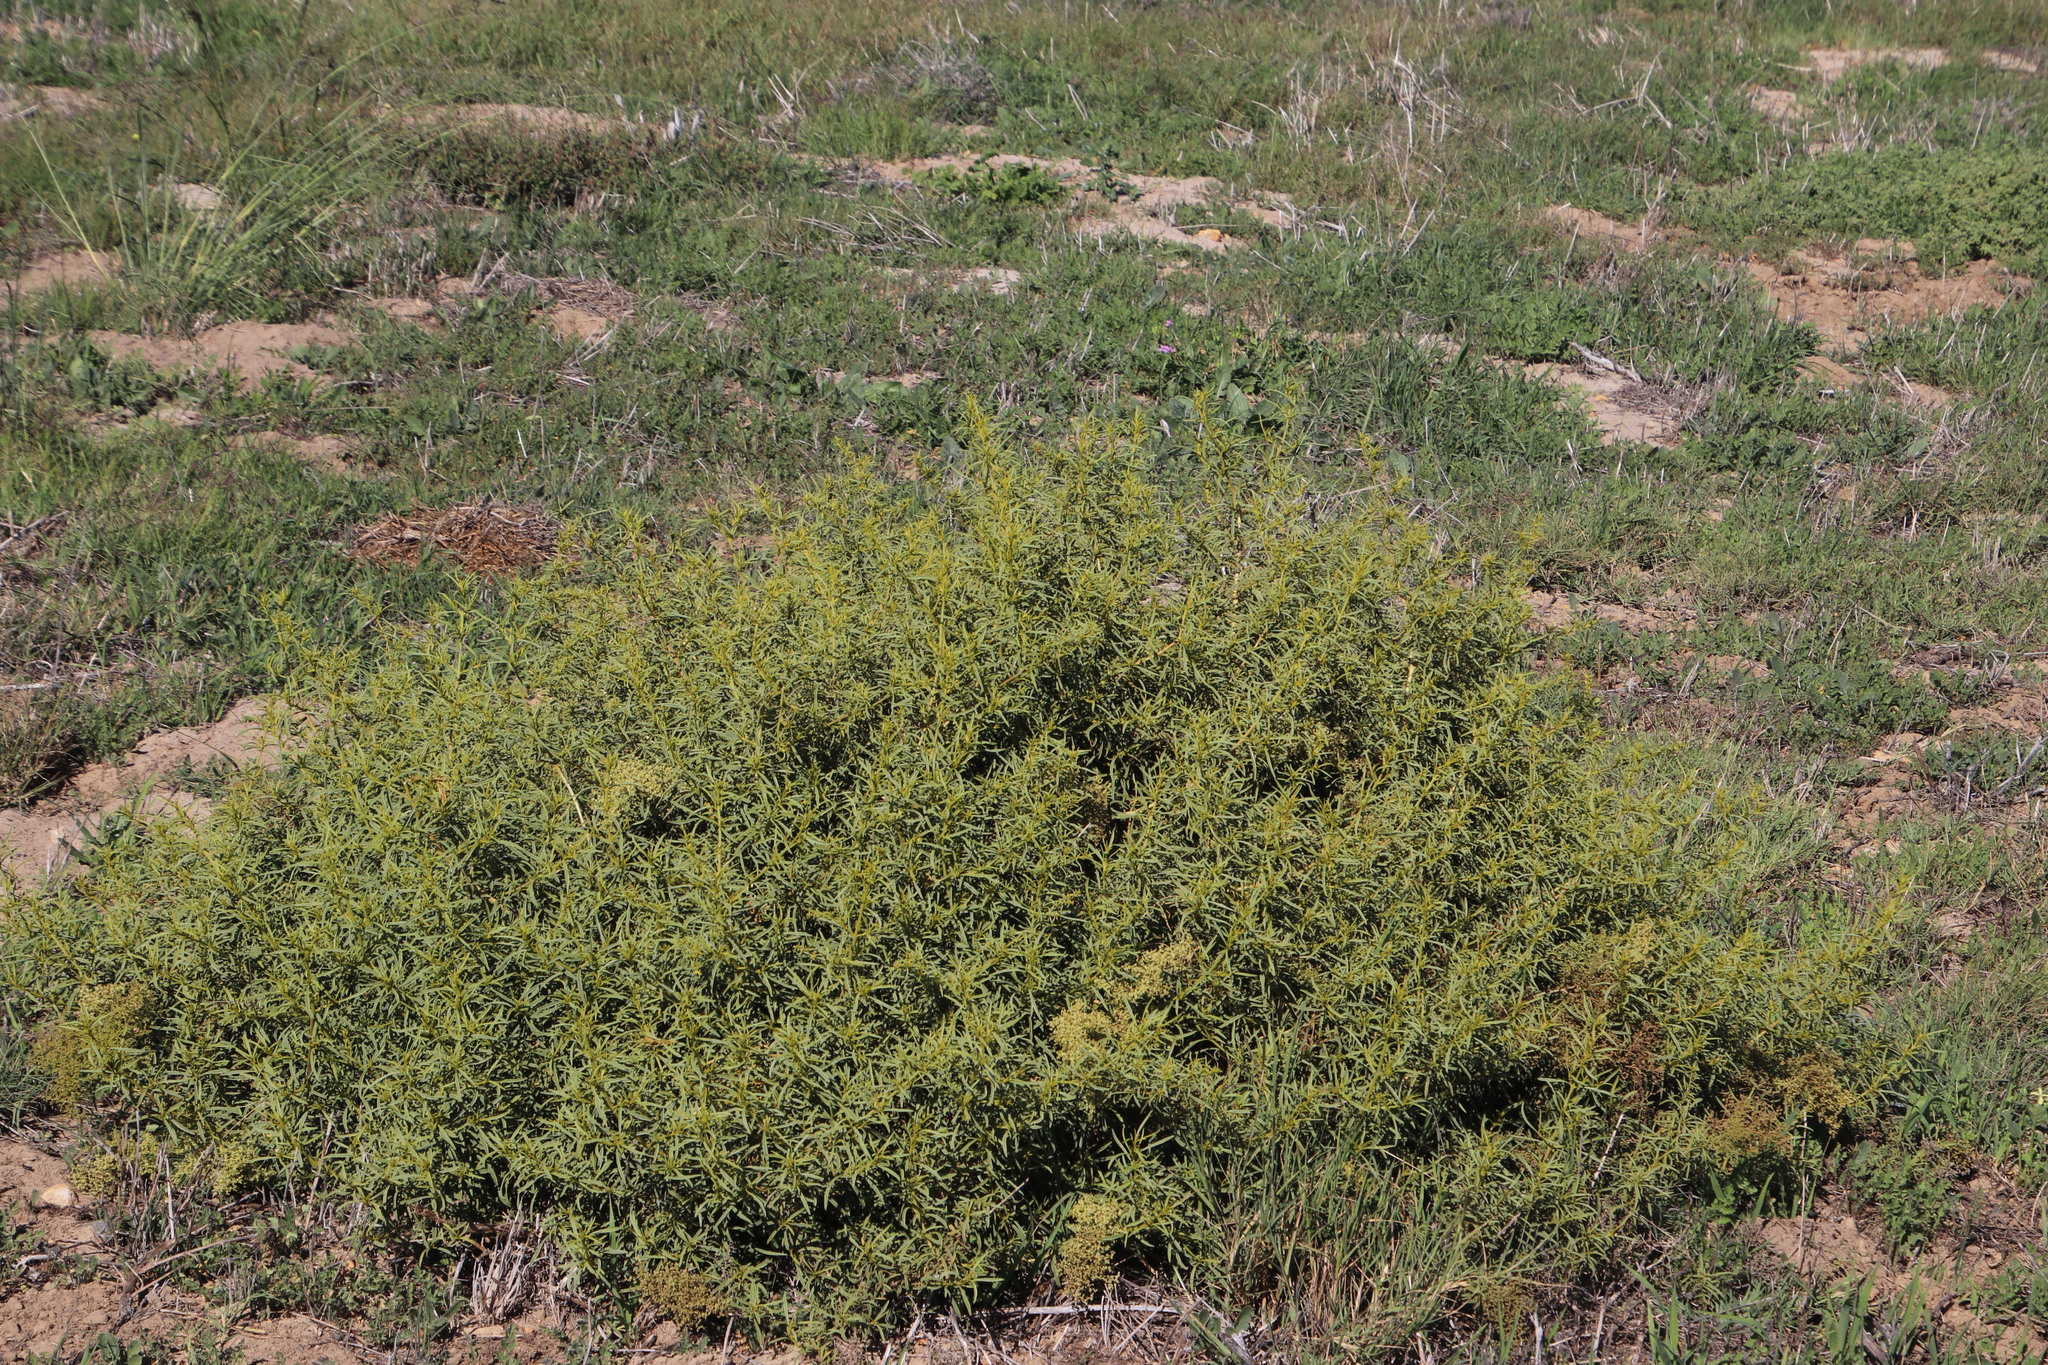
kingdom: Plantae
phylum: Tracheophyta
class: Magnoliopsida
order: Caryophyllales
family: Aizoaceae
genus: Aizoon
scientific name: Aizoon africanum
